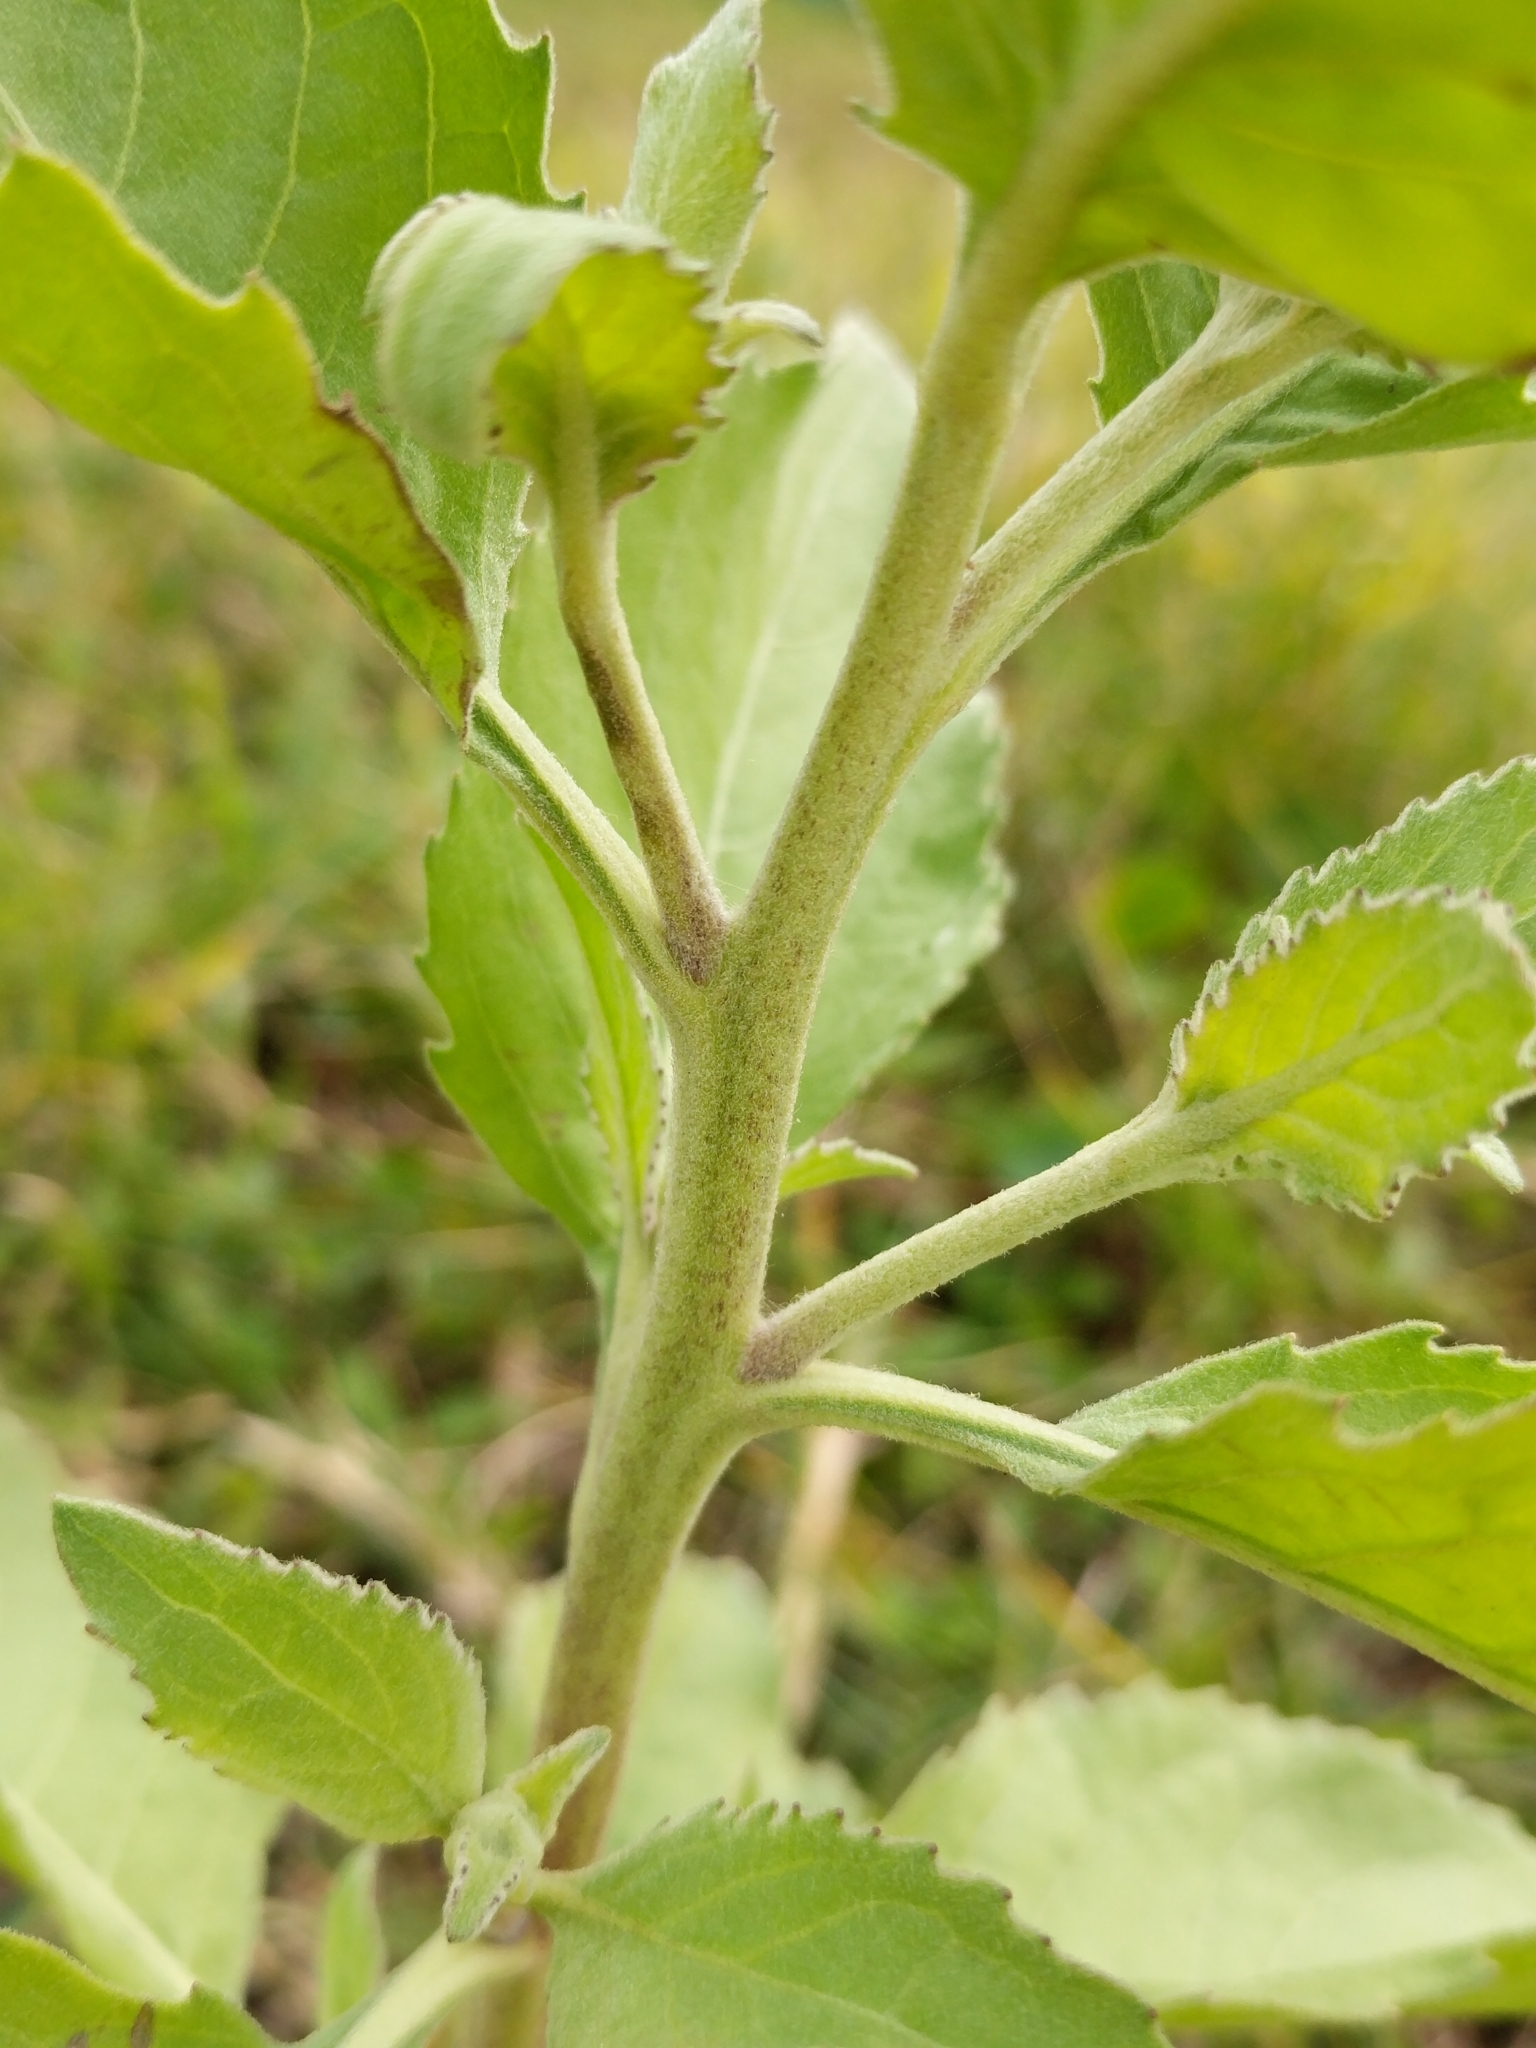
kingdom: Plantae
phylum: Tracheophyta
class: Magnoliopsida
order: Asterales
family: Asteraceae
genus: Pluchea
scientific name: Pluchea odorata
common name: Saltmarsh fleabane
